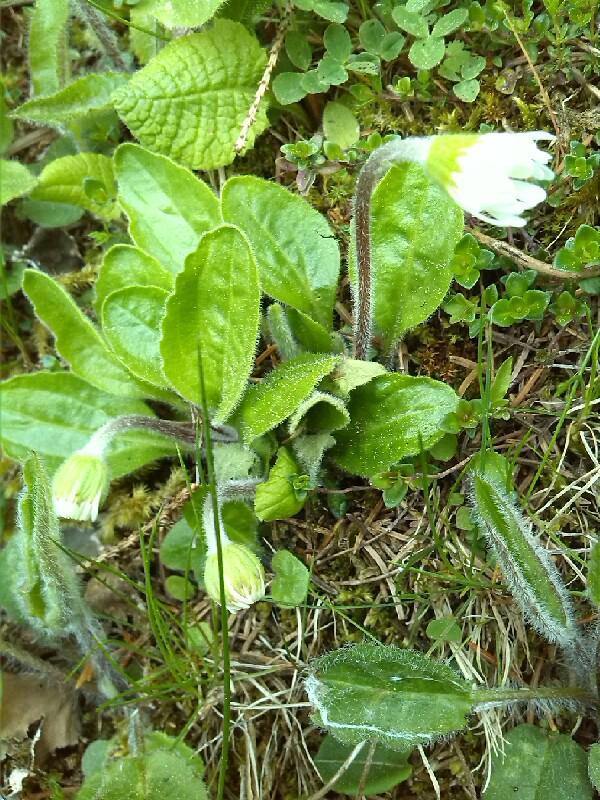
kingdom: Plantae
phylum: Tracheophyta
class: Magnoliopsida
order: Asterales
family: Asteraceae
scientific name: Asteraceae
